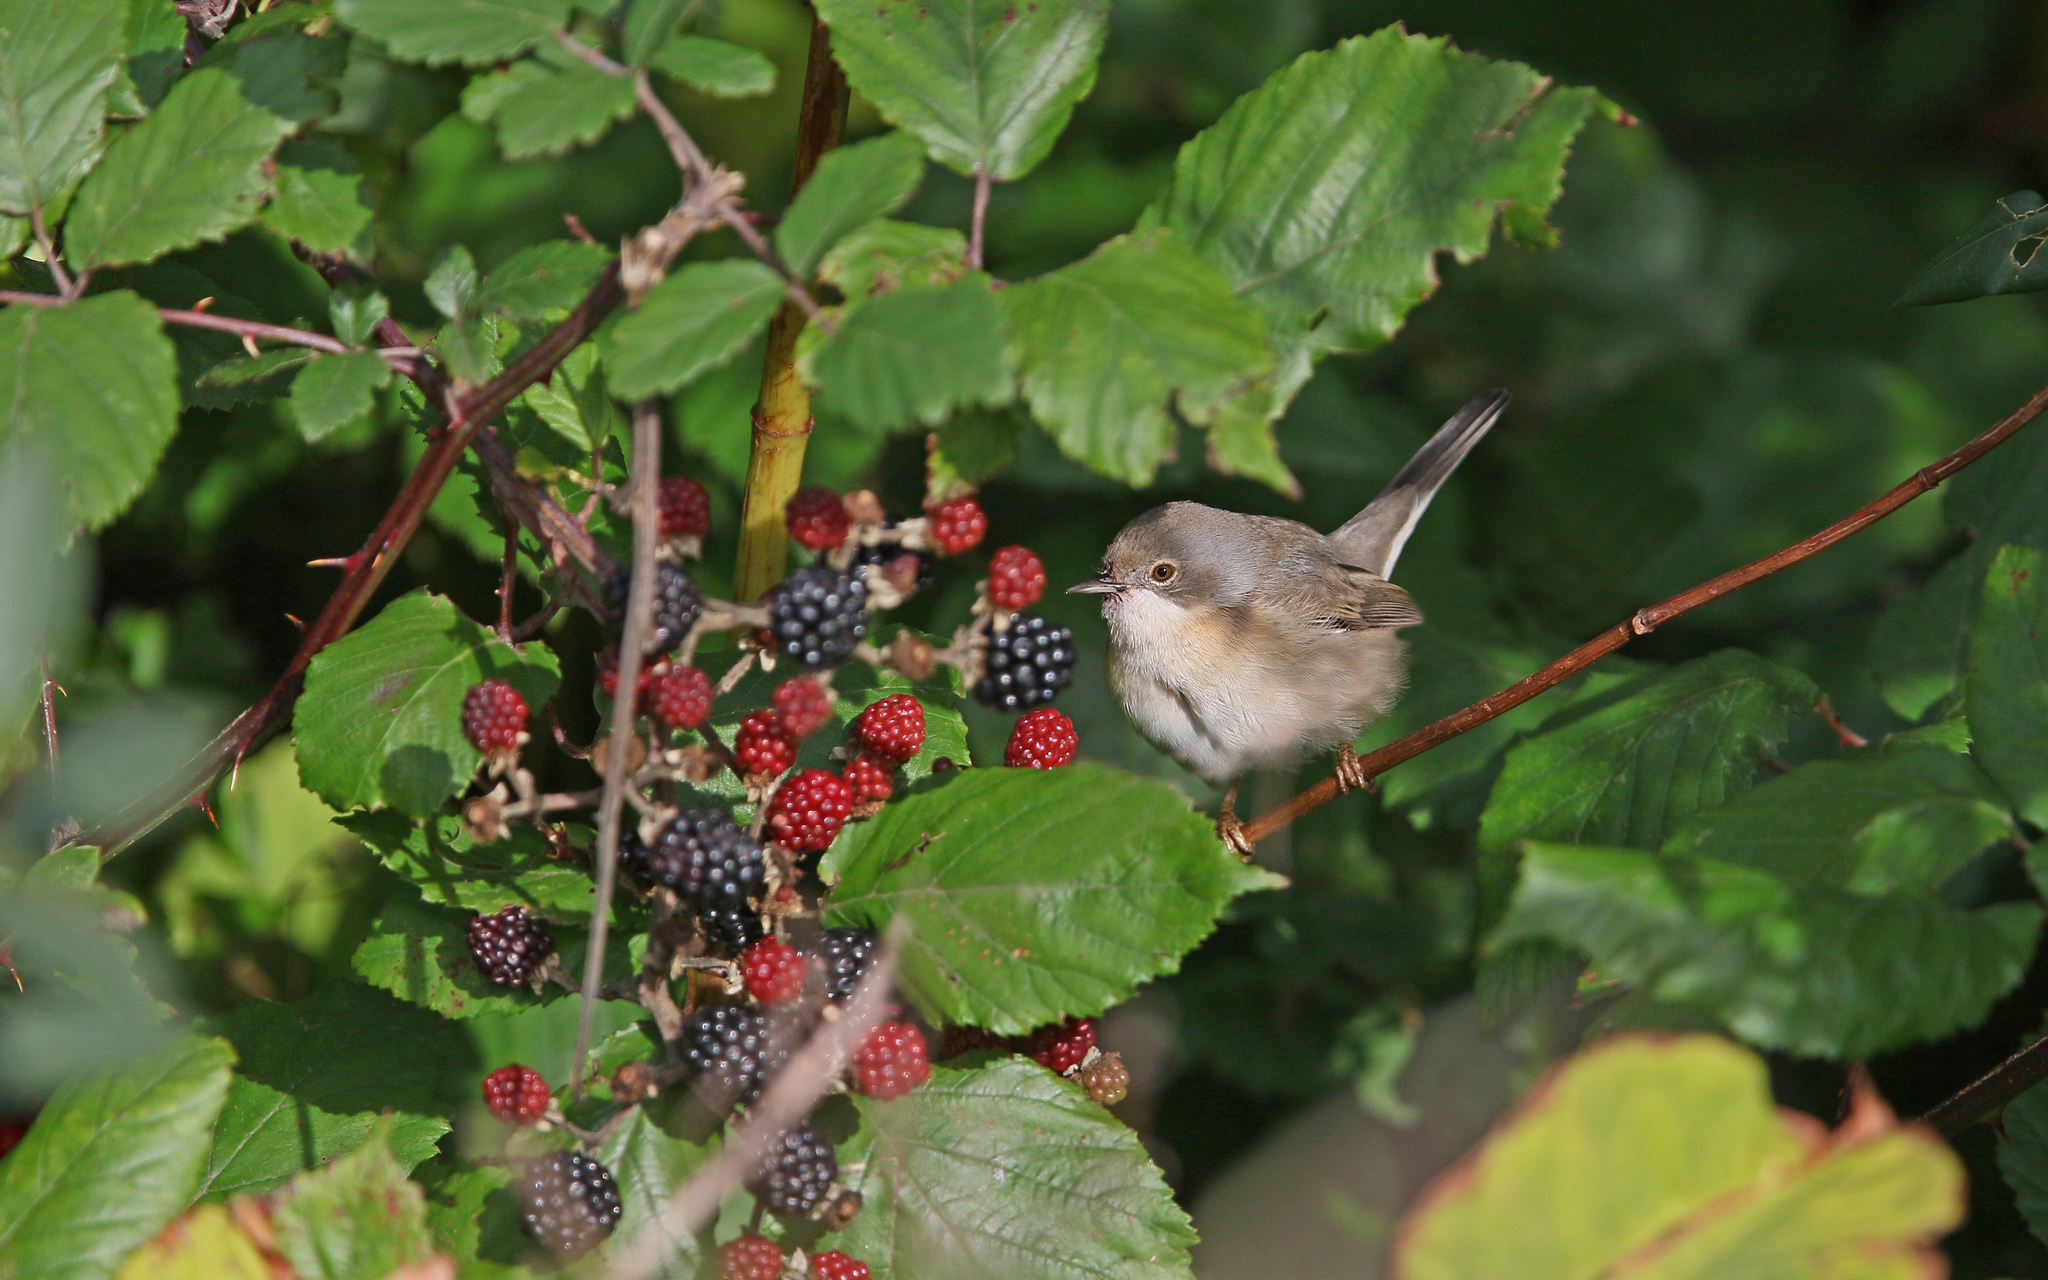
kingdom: Animalia
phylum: Chordata
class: Aves
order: Passeriformes
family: Sylviidae
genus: Curruca
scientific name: Curruca cantillans
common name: Subalpine warbler
